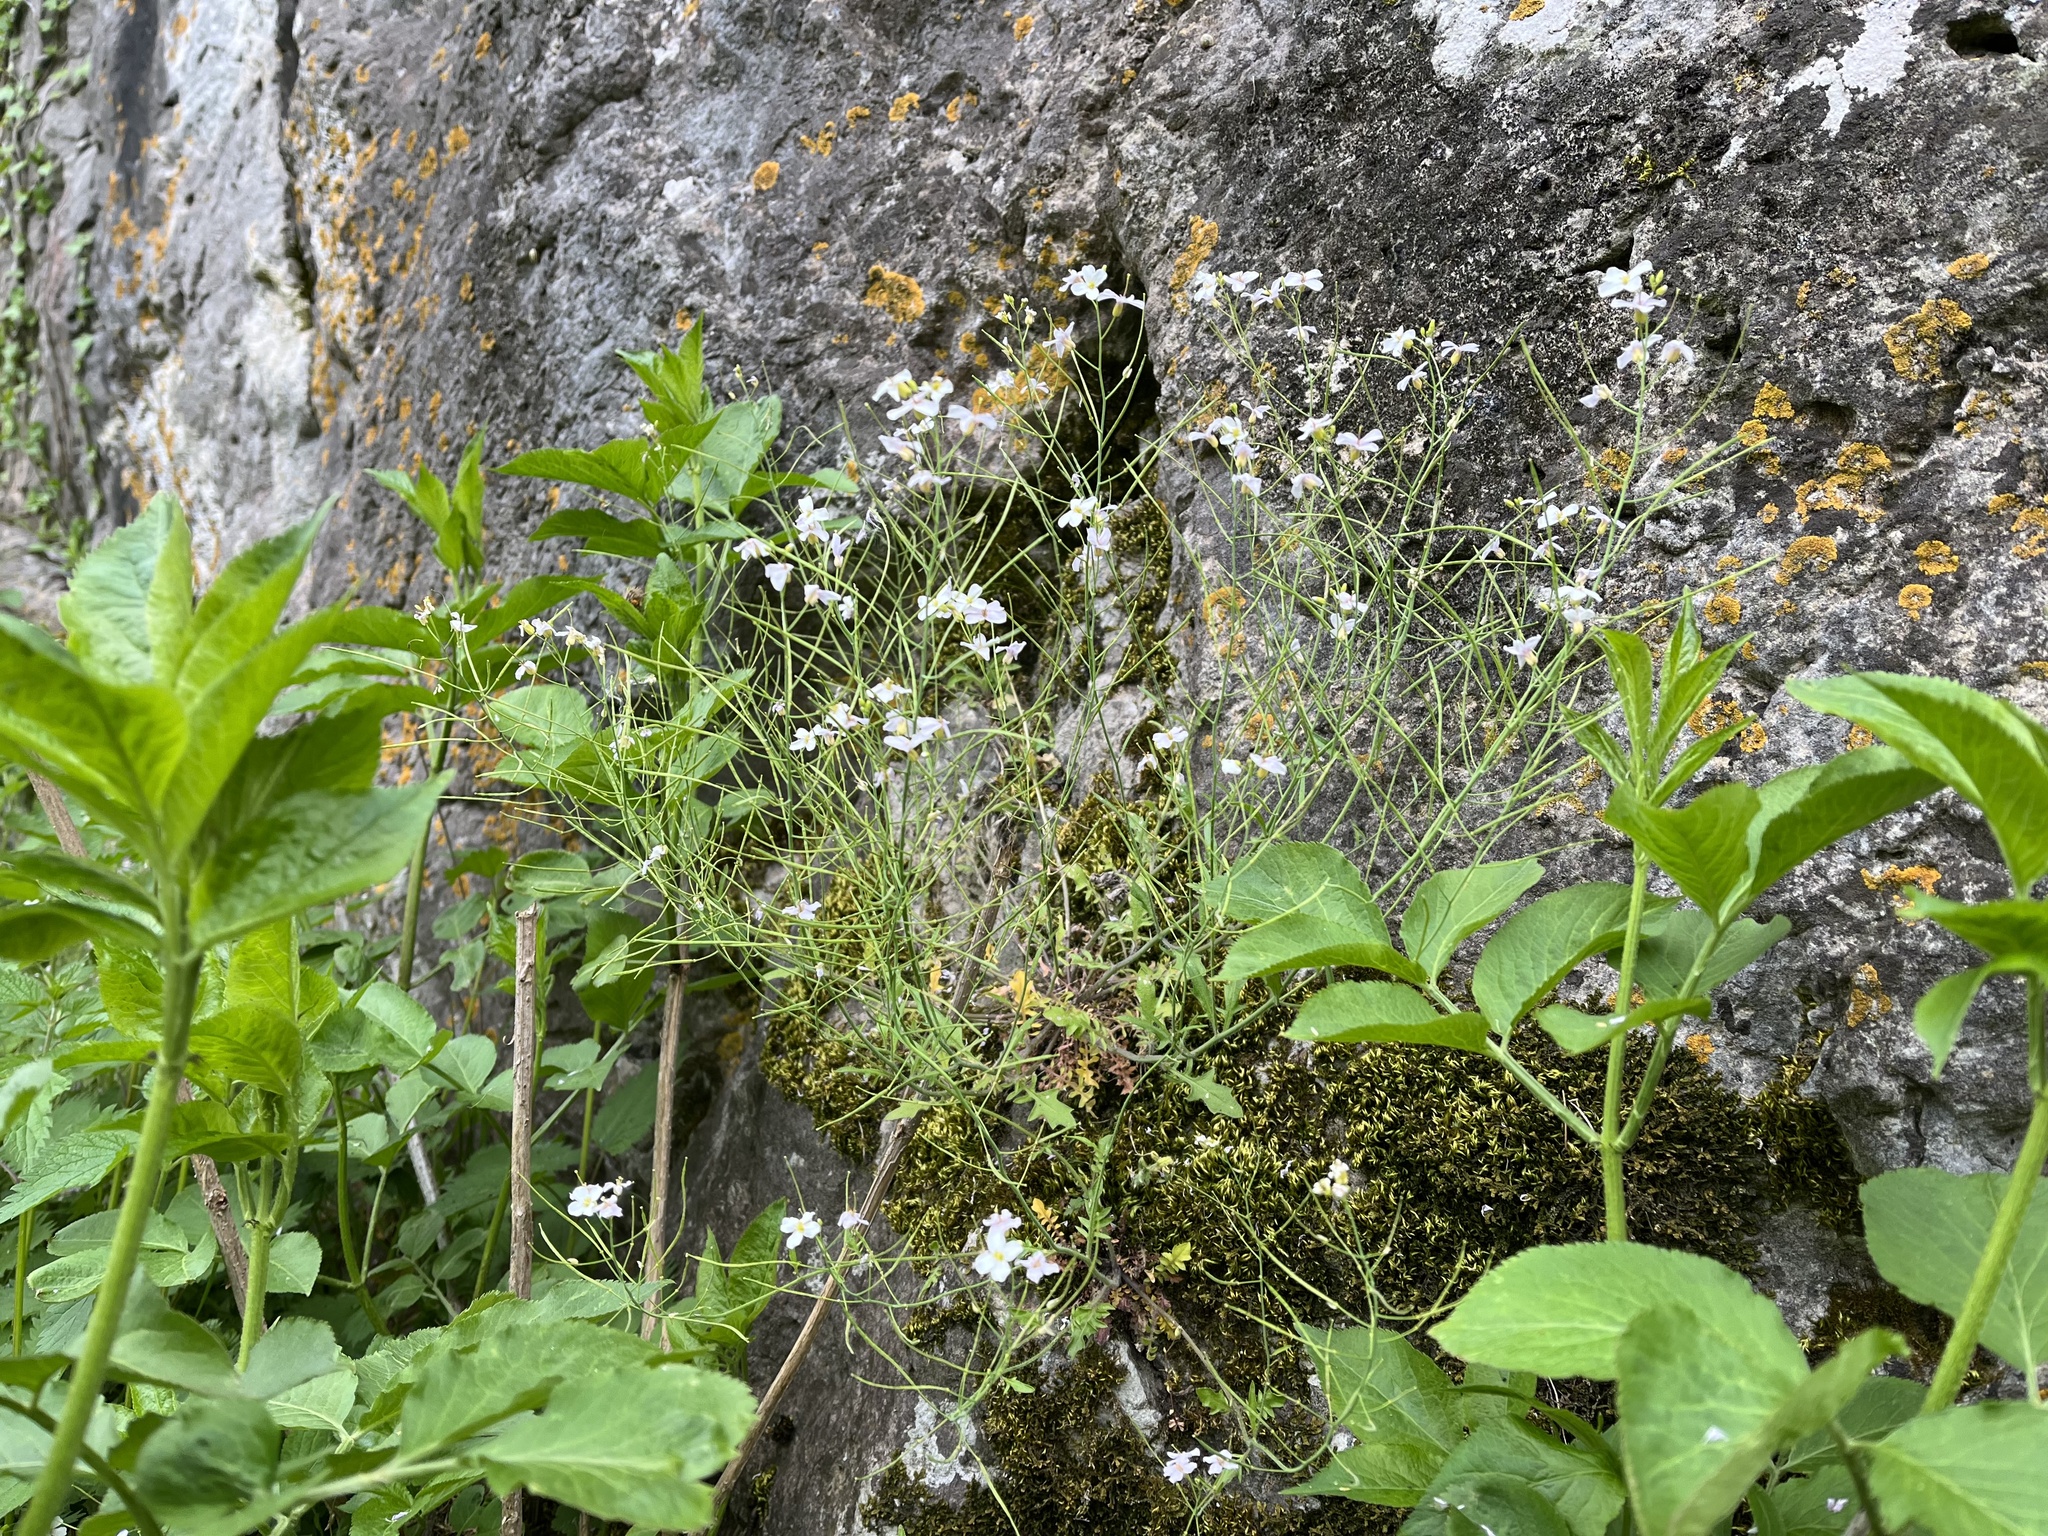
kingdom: Plantae
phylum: Tracheophyta
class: Magnoliopsida
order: Brassicales
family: Brassicaceae
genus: Arabidopsis
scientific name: Arabidopsis arenosa
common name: Sand rock-cress
